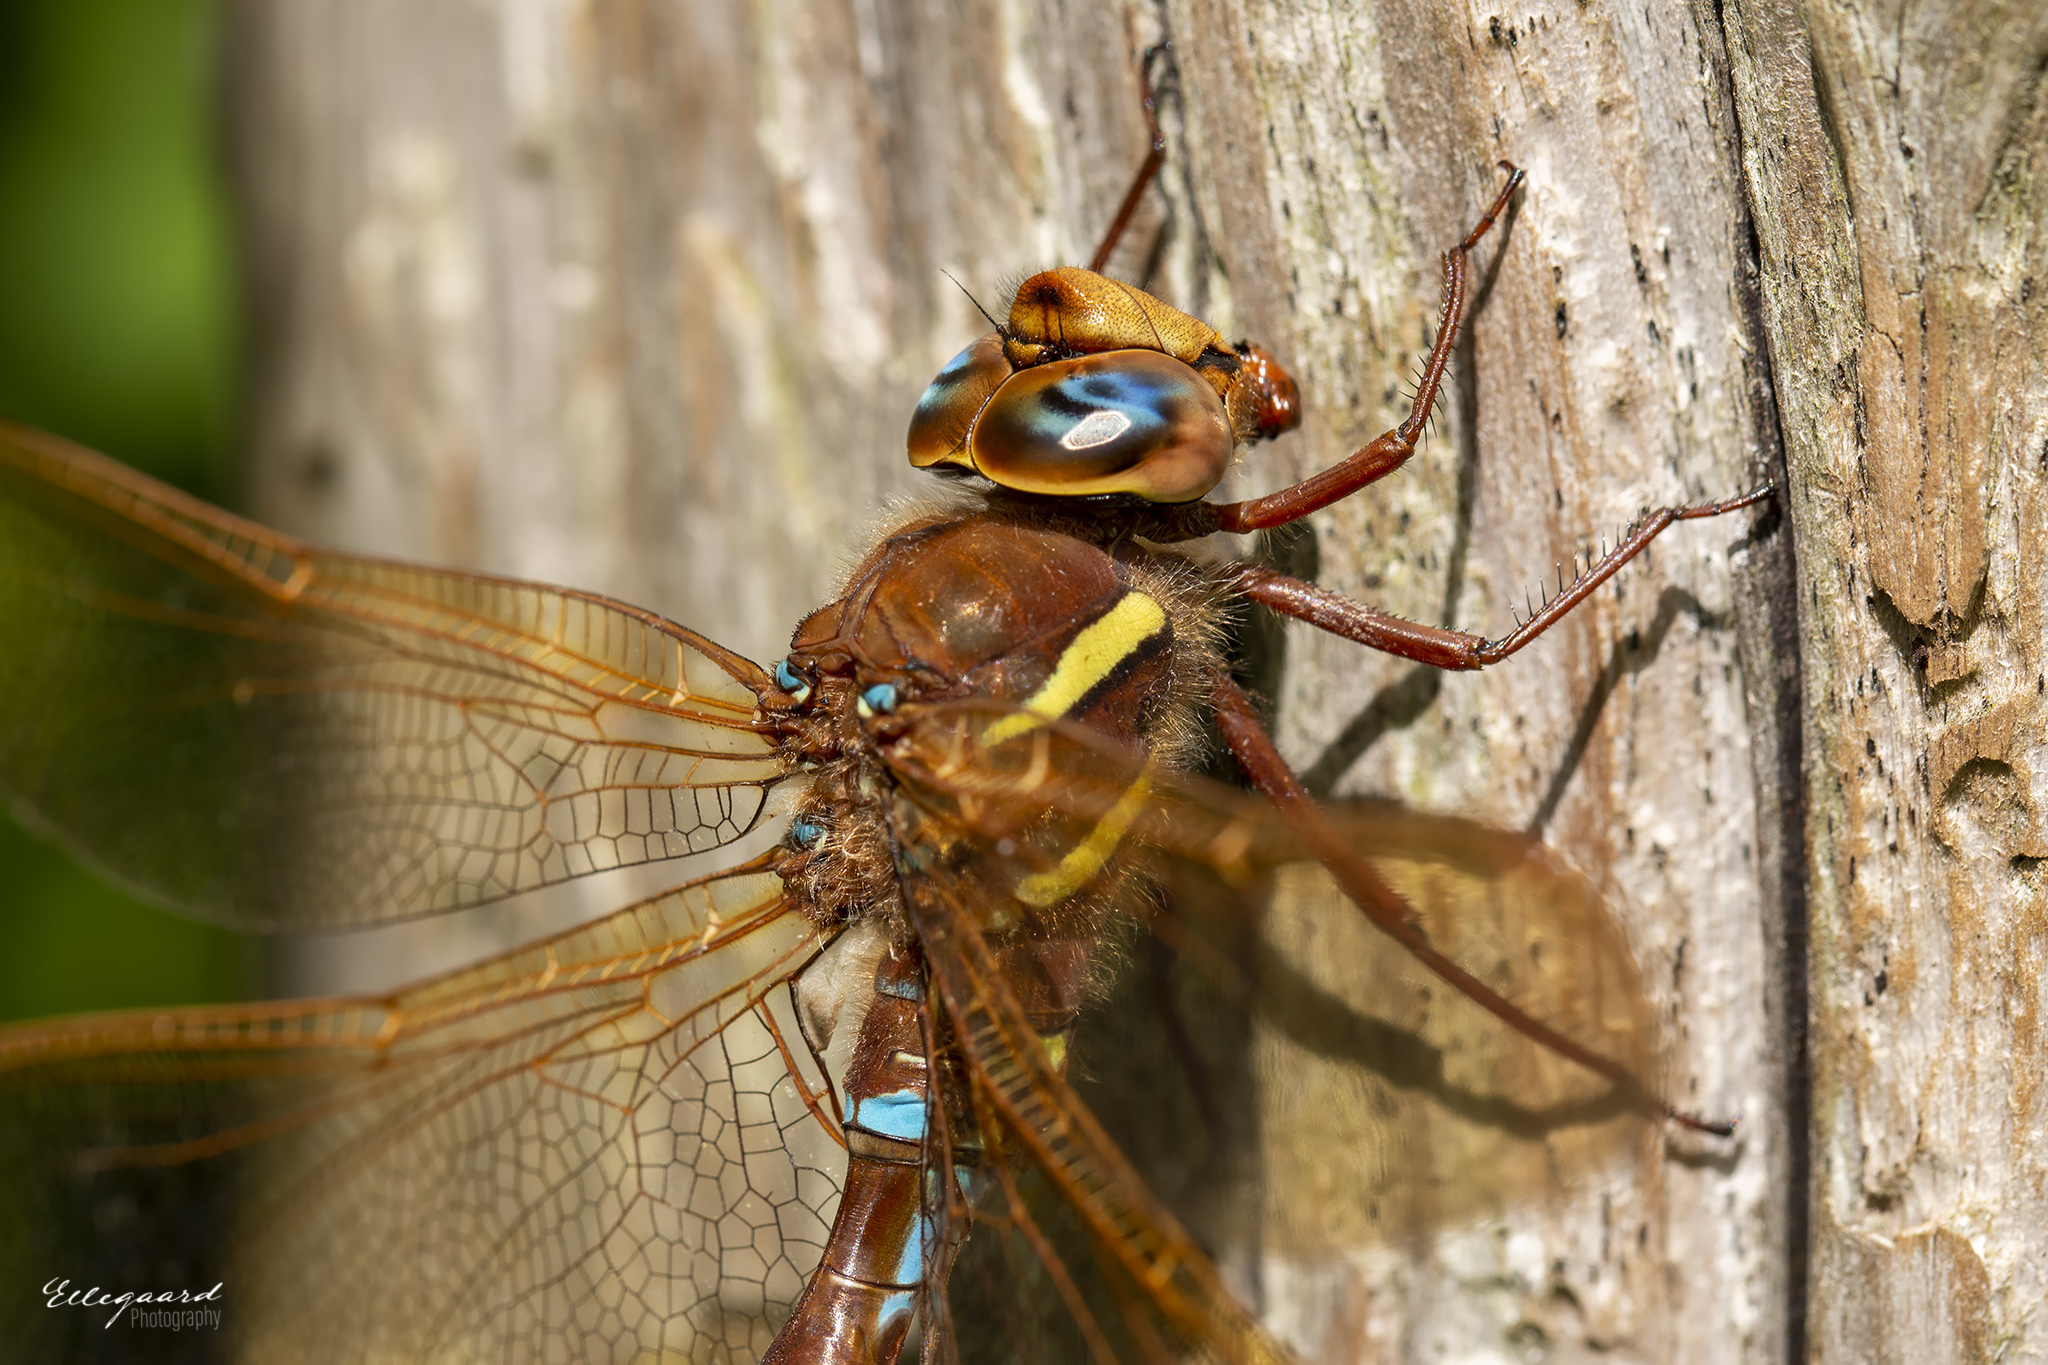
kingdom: Animalia
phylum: Arthropoda
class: Insecta
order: Odonata
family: Aeshnidae
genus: Aeshna
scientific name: Aeshna grandis
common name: Brown hawker
